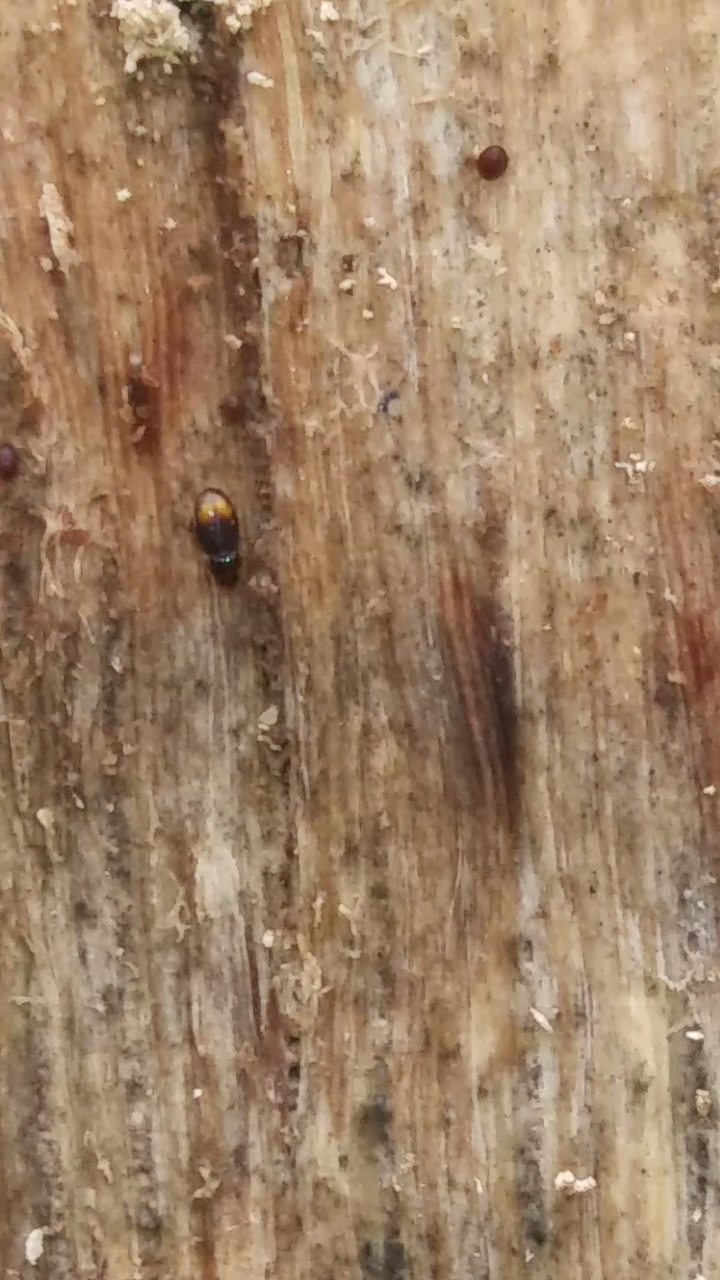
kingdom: Animalia
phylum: Arthropoda
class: Insecta
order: Coleoptera
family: Carabidae
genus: Mioptachys
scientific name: Mioptachys flavicauda
